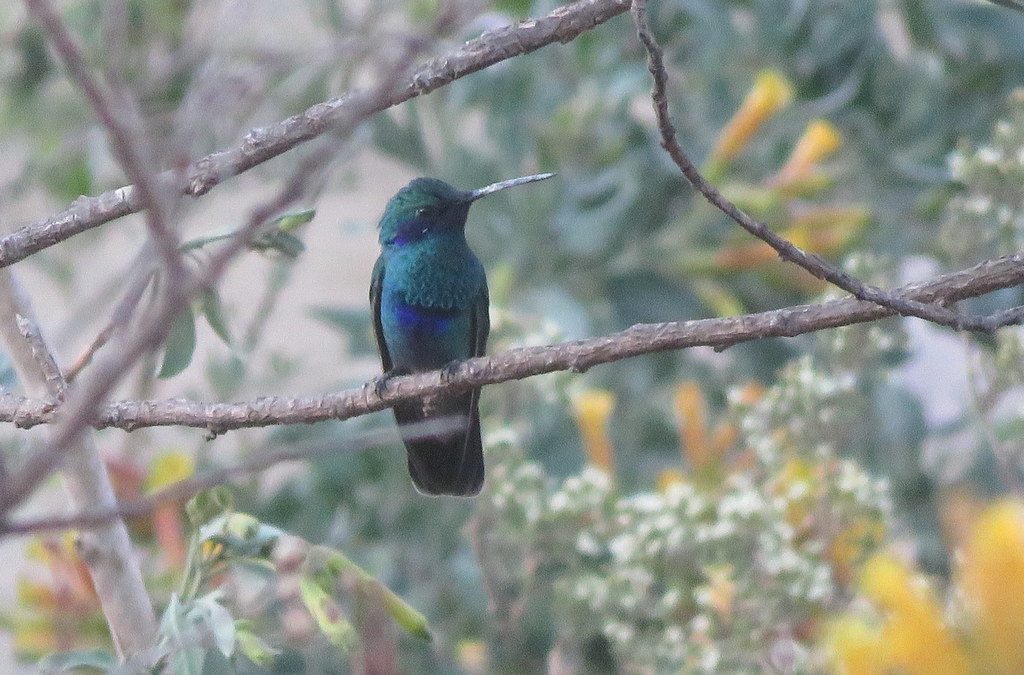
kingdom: Animalia
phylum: Chordata
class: Aves
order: Apodiformes
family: Trochilidae
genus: Colibri
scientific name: Colibri coruscans
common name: Sparkling violetear
